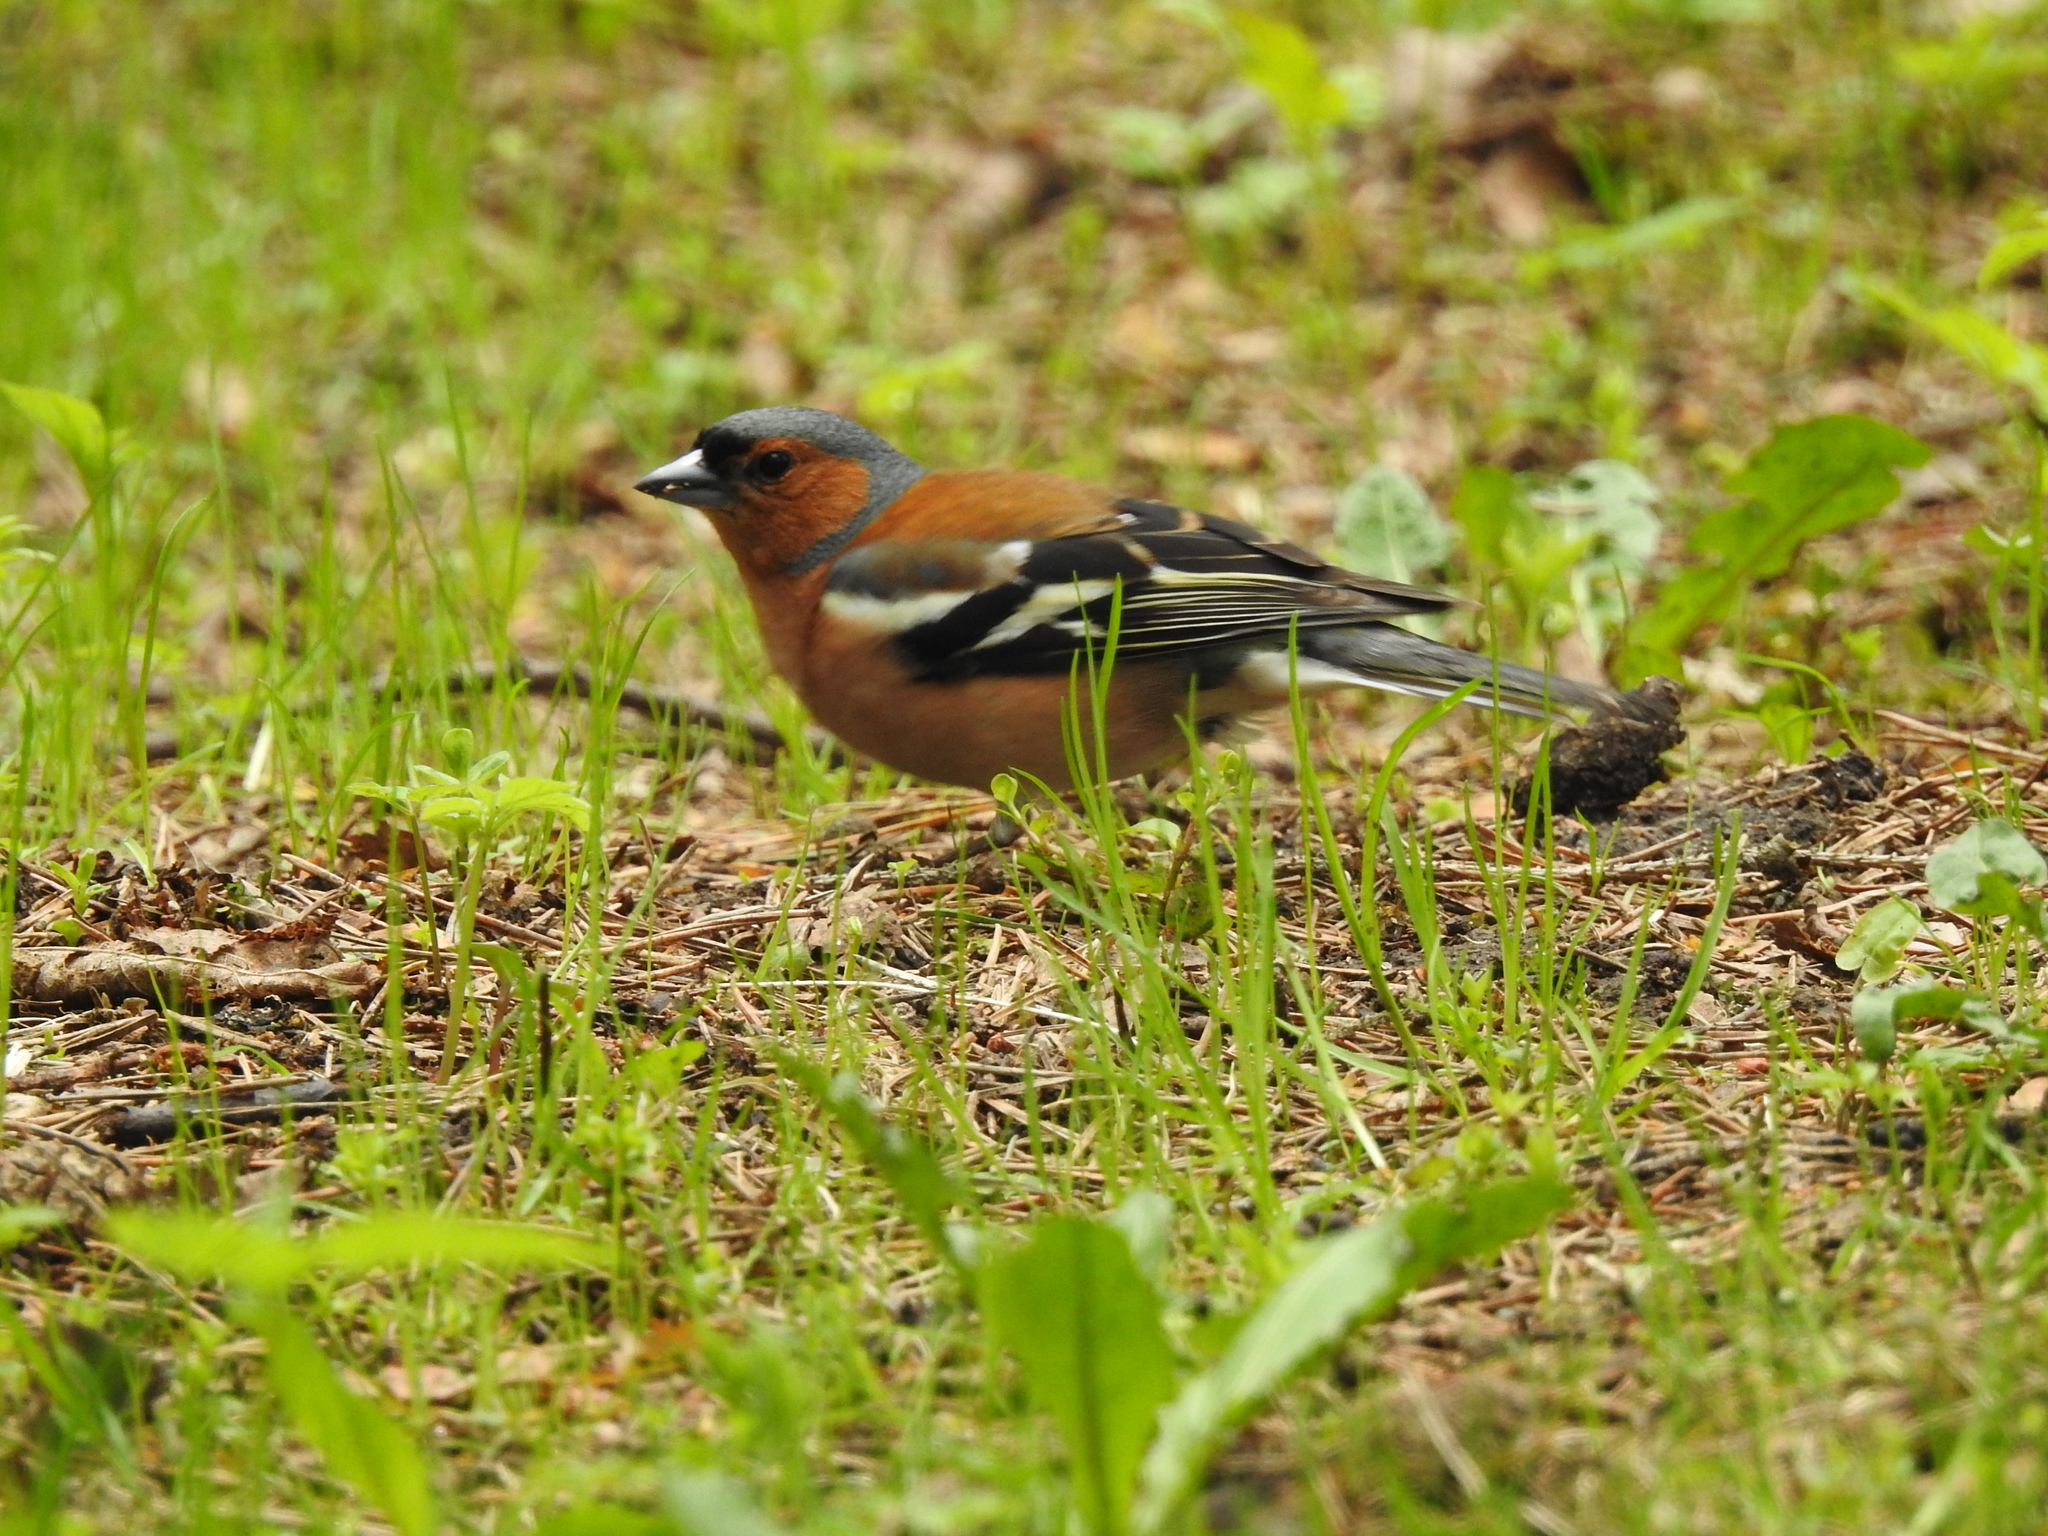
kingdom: Animalia
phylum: Chordata
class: Aves
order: Passeriformes
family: Fringillidae
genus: Fringilla
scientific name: Fringilla coelebs
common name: Common chaffinch
